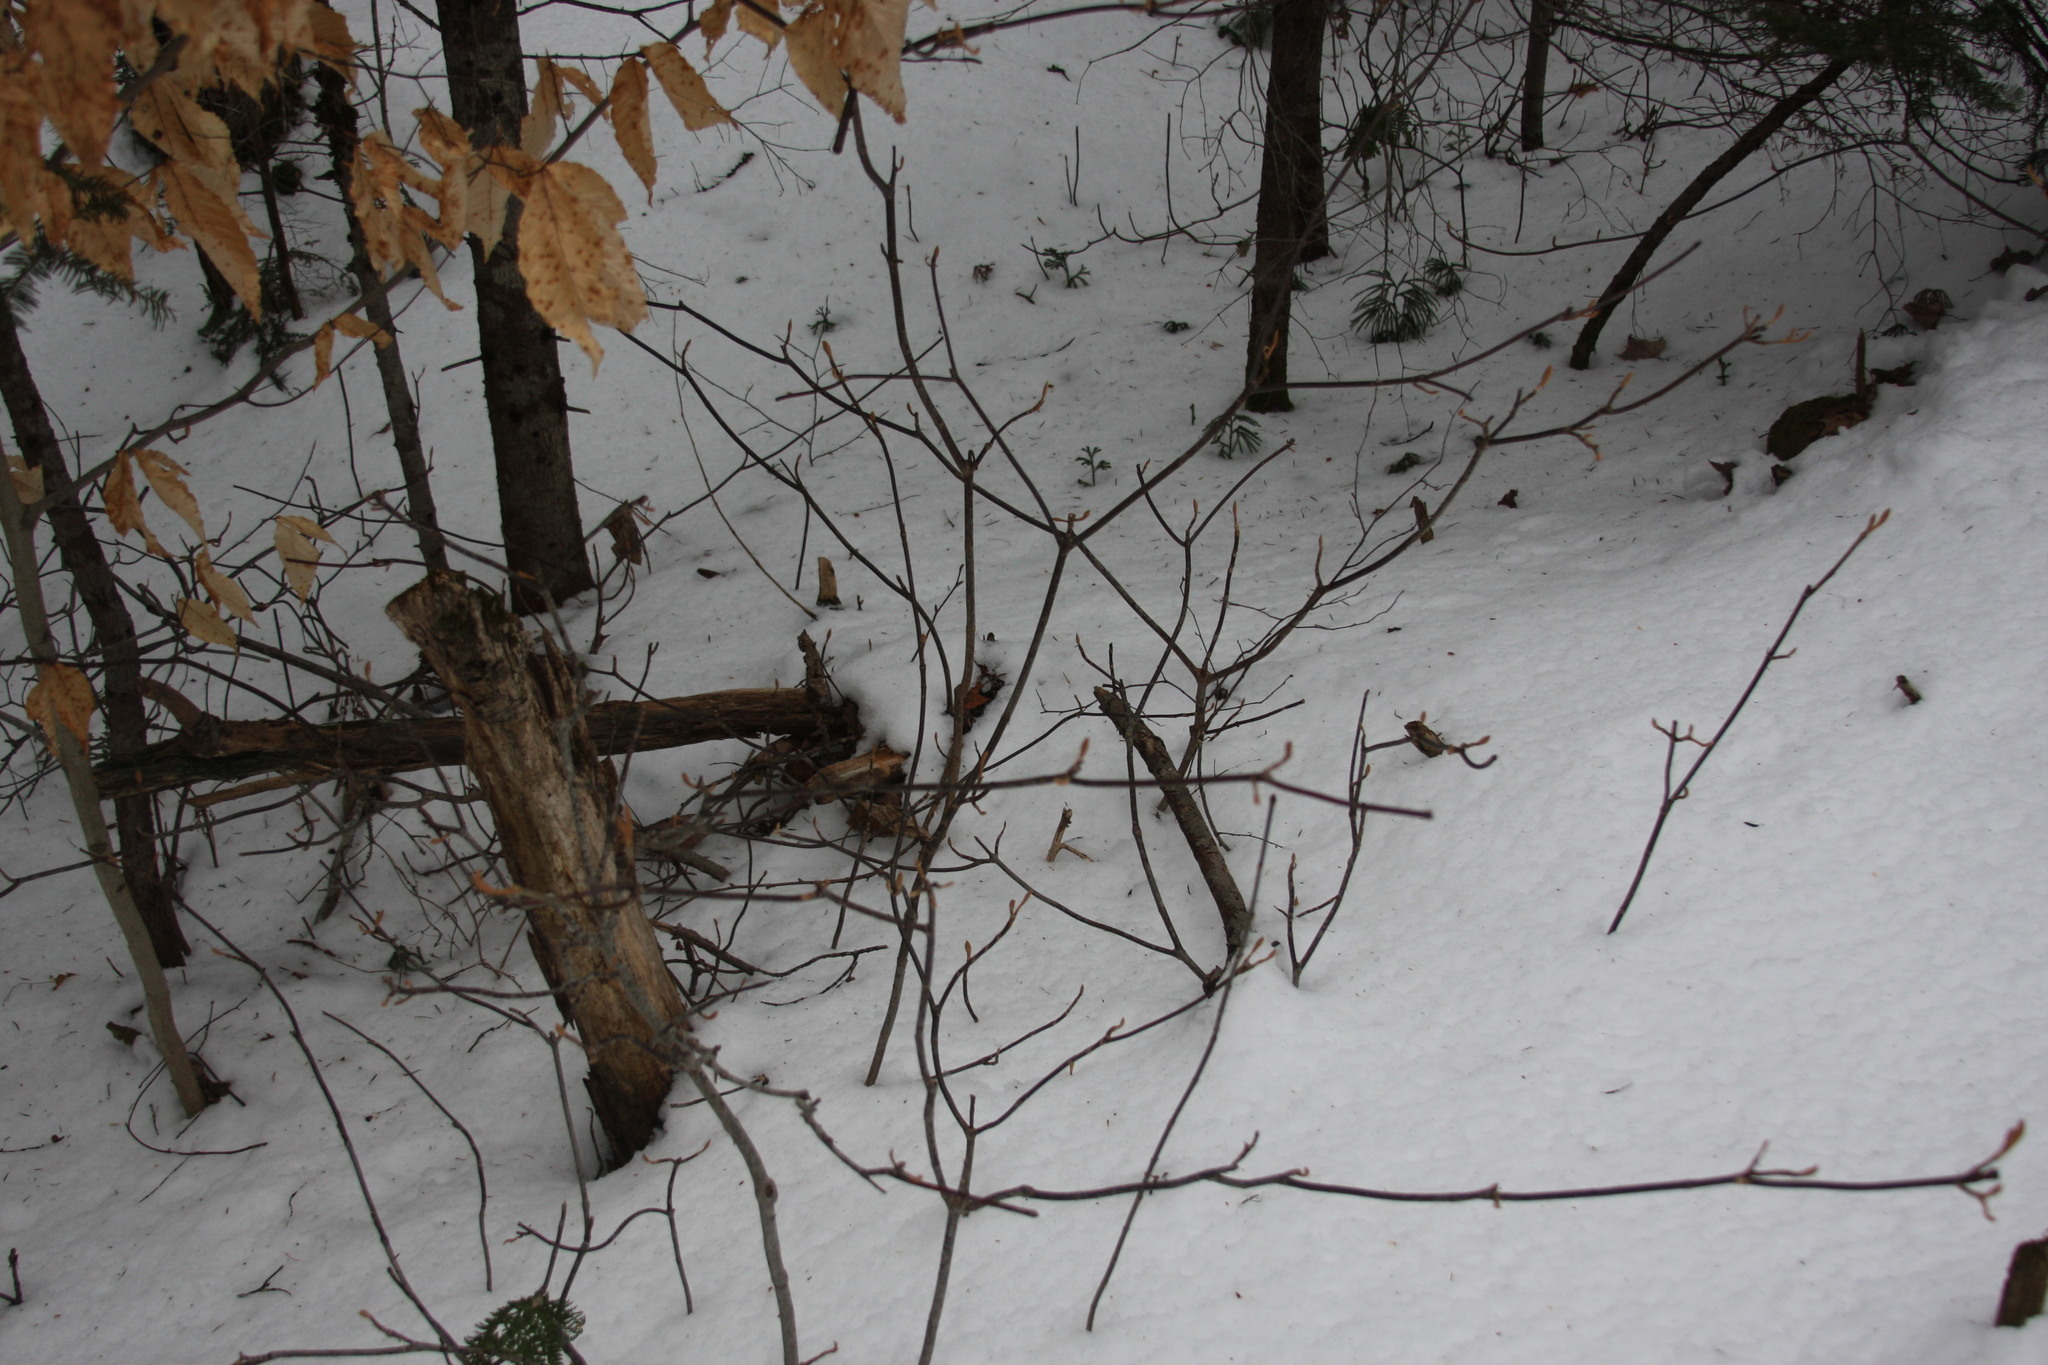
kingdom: Plantae
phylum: Tracheophyta
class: Magnoliopsida
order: Dipsacales
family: Viburnaceae
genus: Viburnum
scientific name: Viburnum lantanoides
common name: Hobblebush
